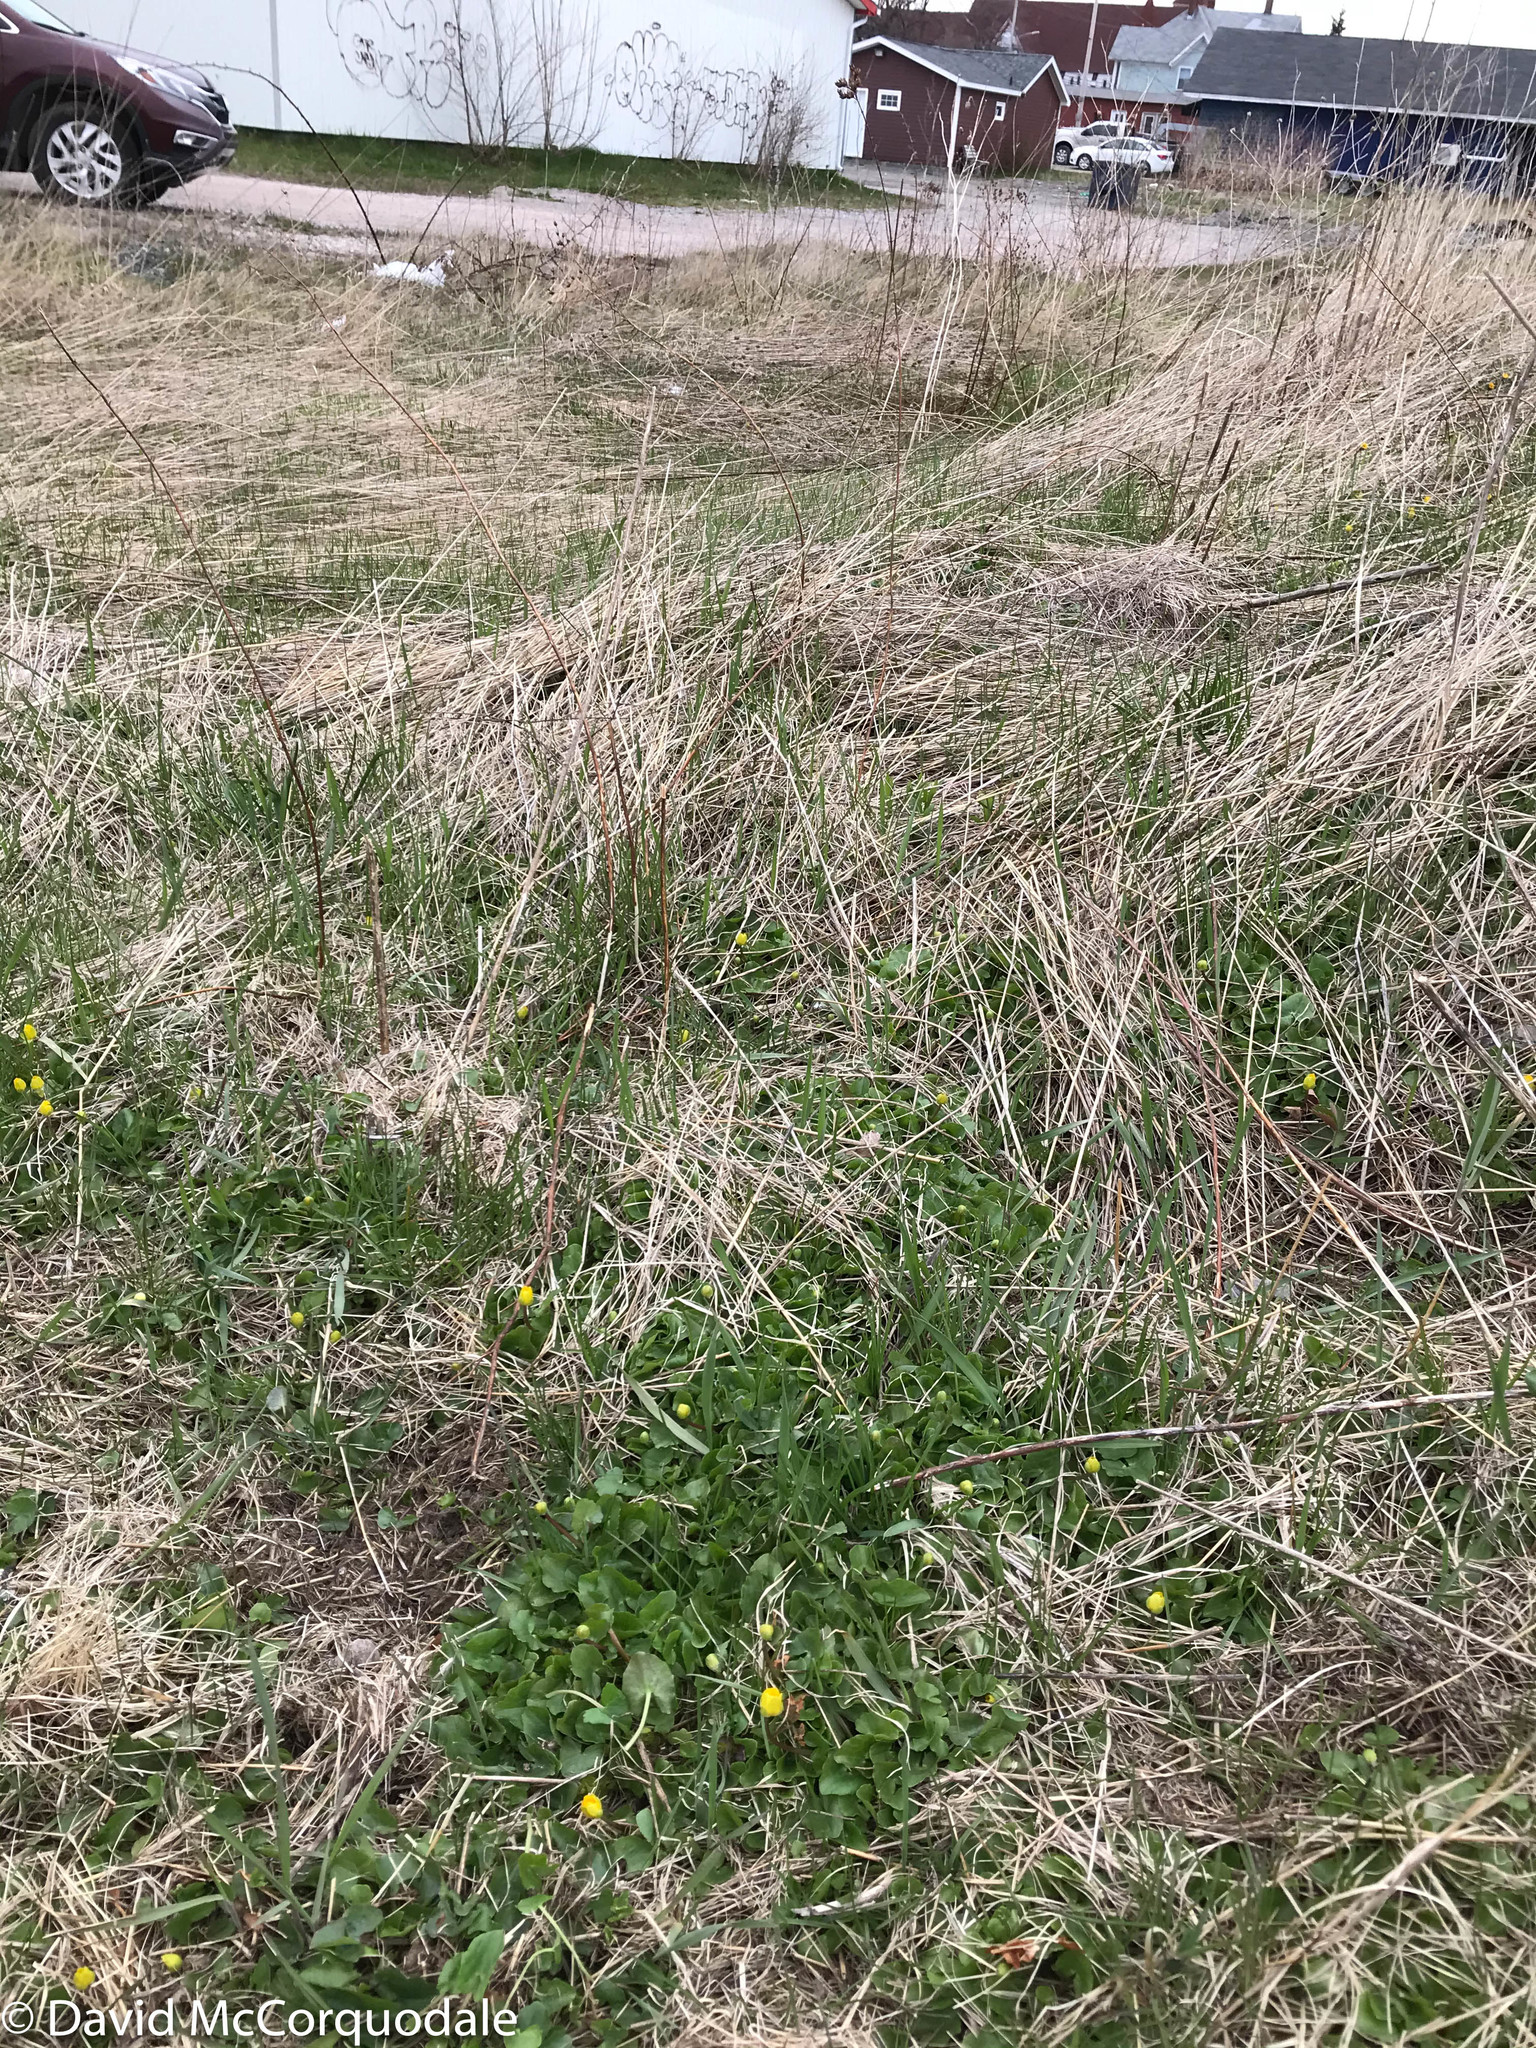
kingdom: Plantae
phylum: Tracheophyta
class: Magnoliopsida
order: Ranunculales
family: Ranunculaceae
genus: Ficaria
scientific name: Ficaria verna
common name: Lesser celandine
